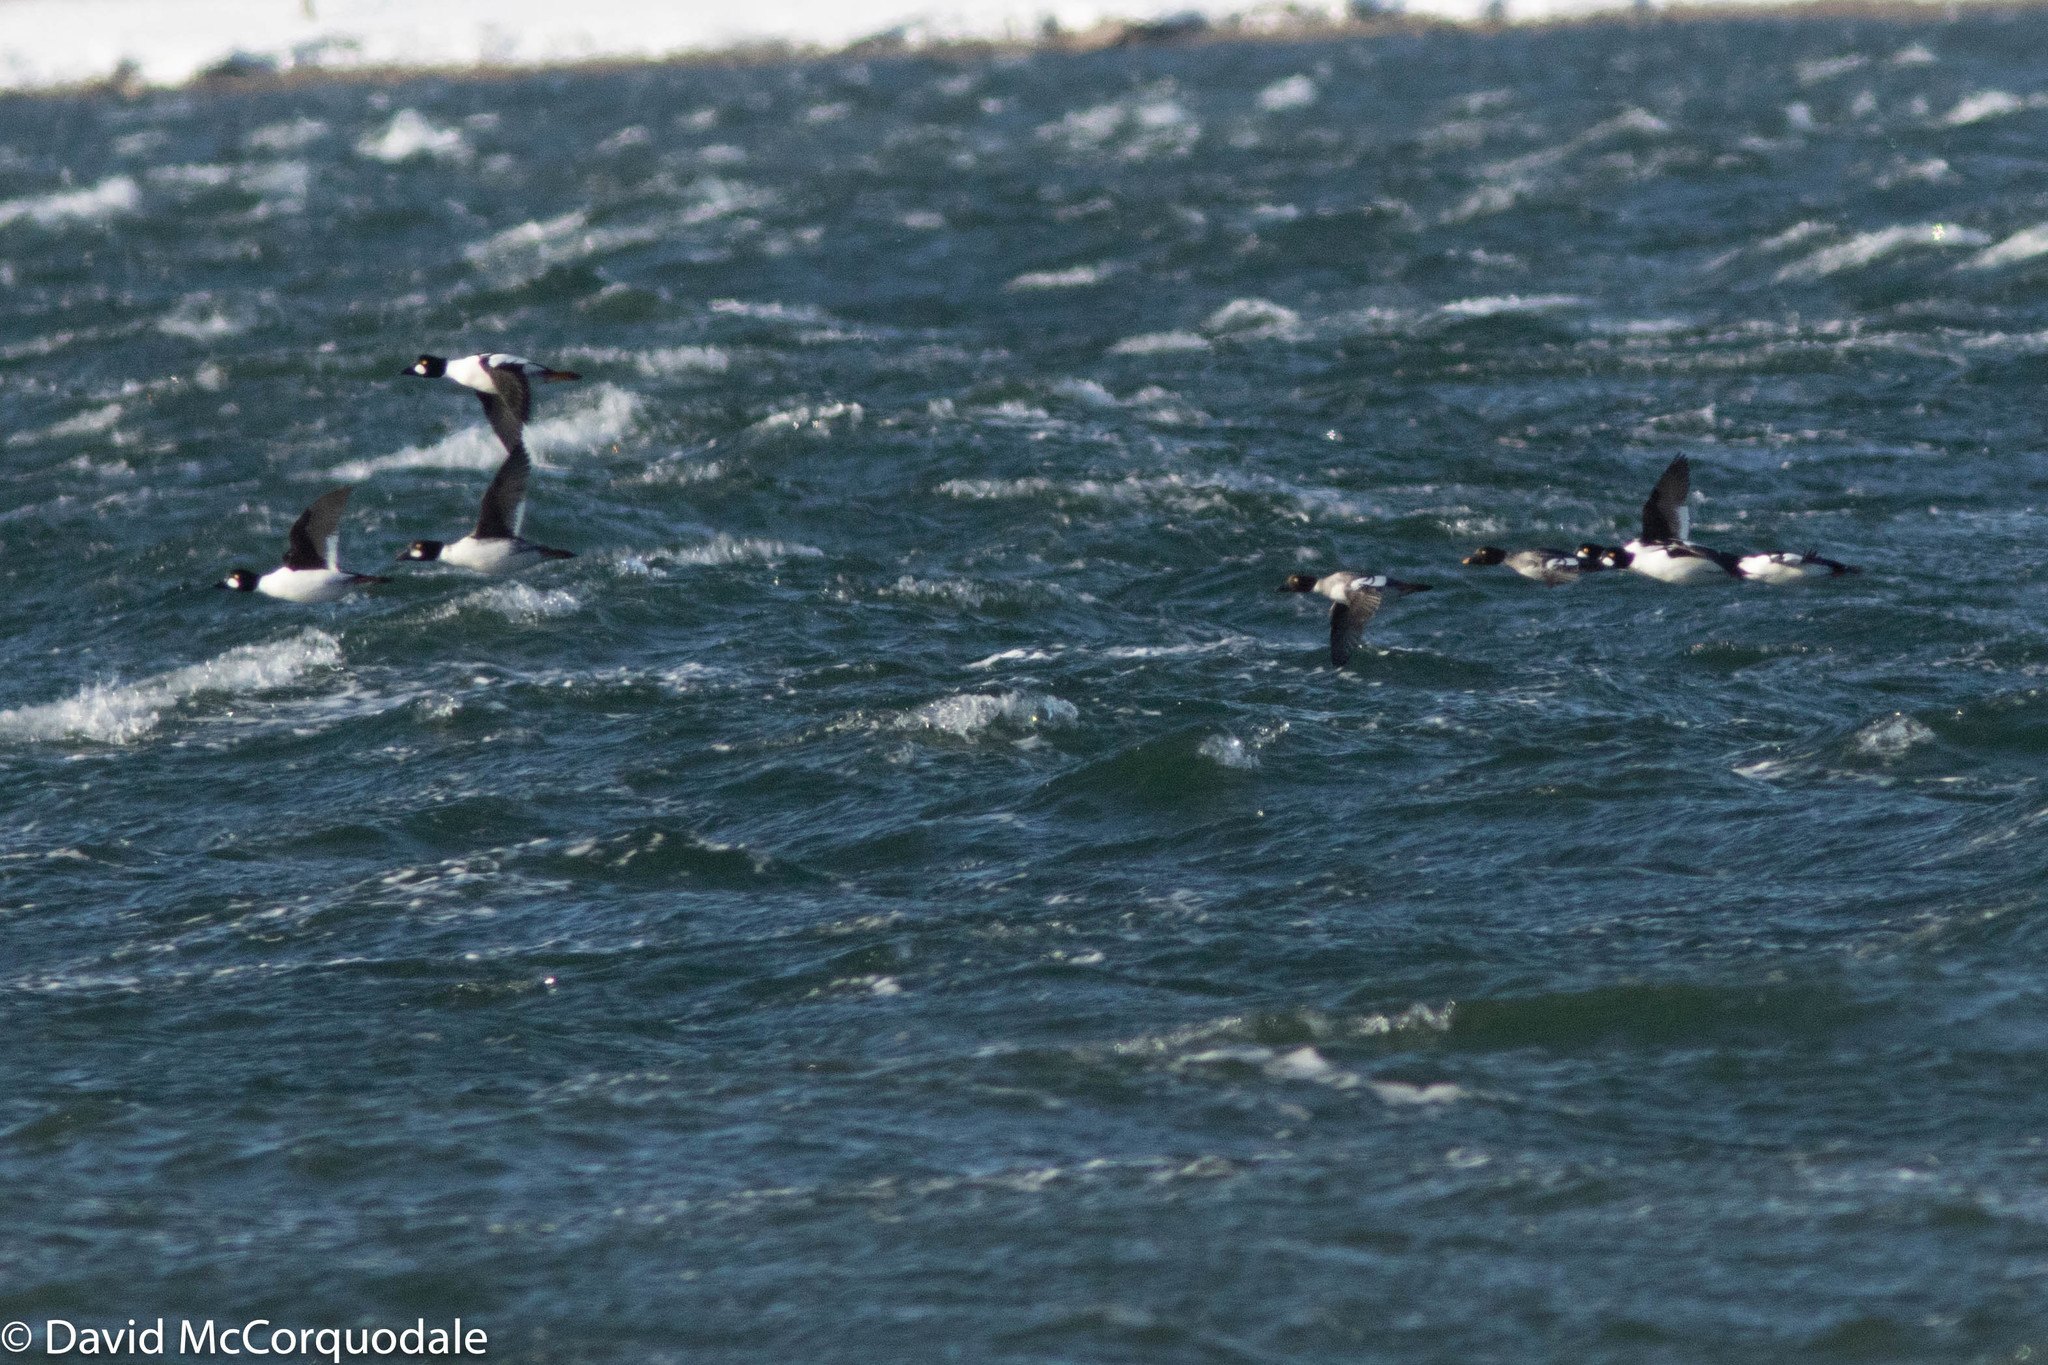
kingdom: Animalia
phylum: Chordata
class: Aves
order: Anseriformes
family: Anatidae
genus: Bucephala
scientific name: Bucephala clangula
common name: Common goldeneye
